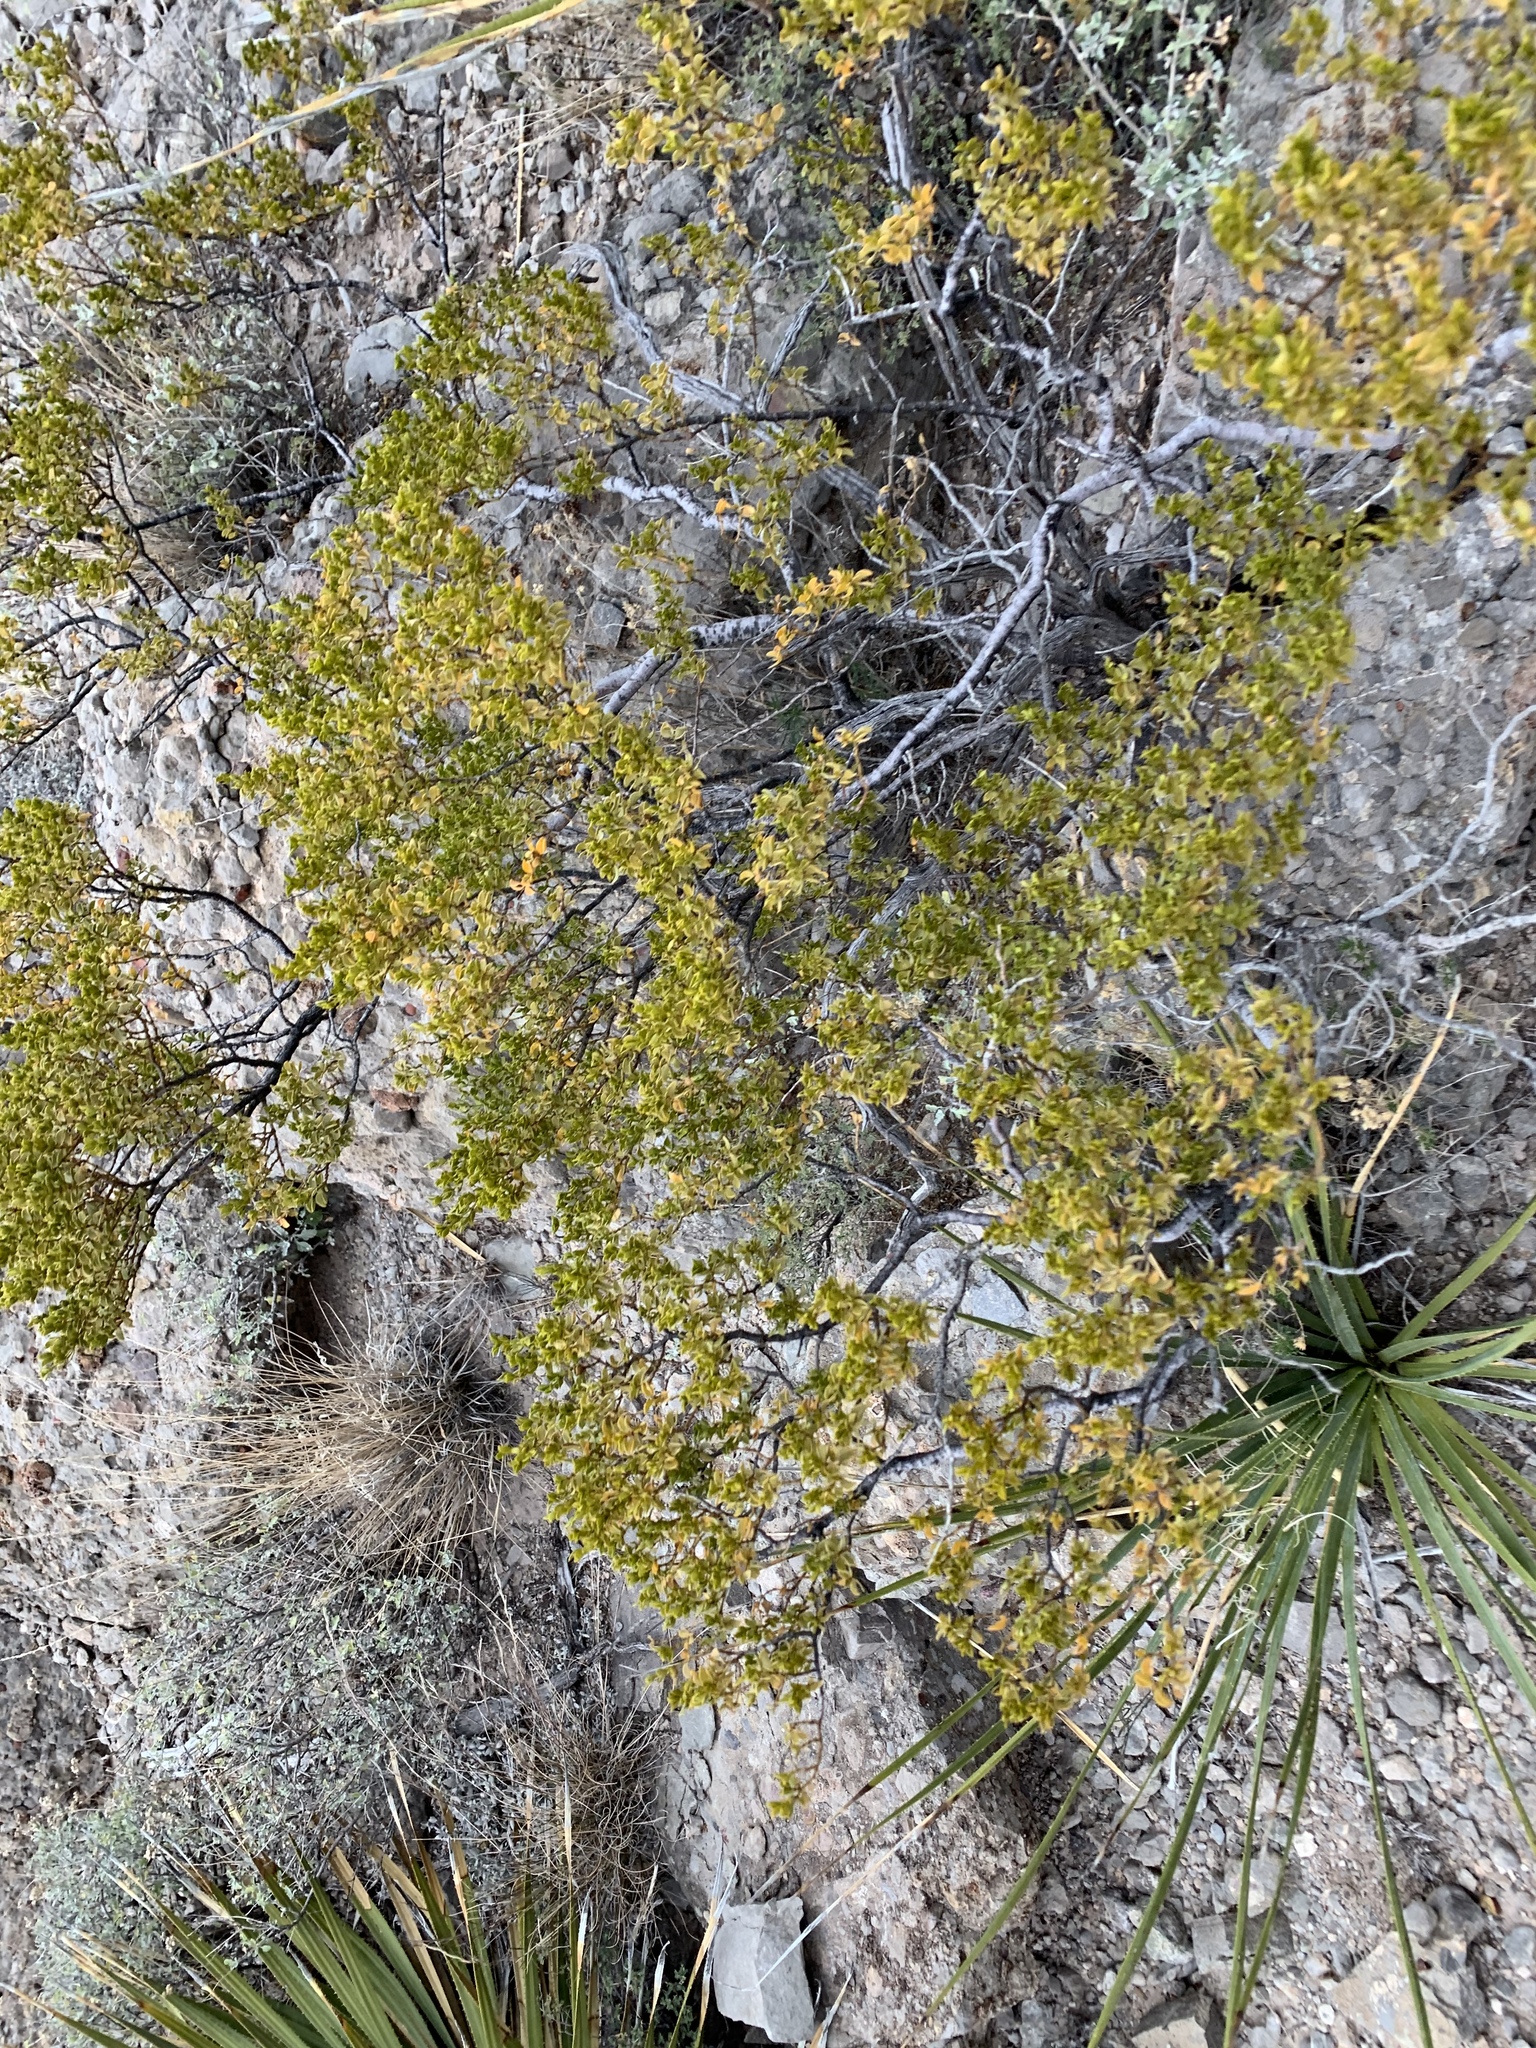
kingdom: Plantae
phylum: Tracheophyta
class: Magnoliopsida
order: Zygophyllales
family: Zygophyllaceae
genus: Larrea
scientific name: Larrea tridentata
